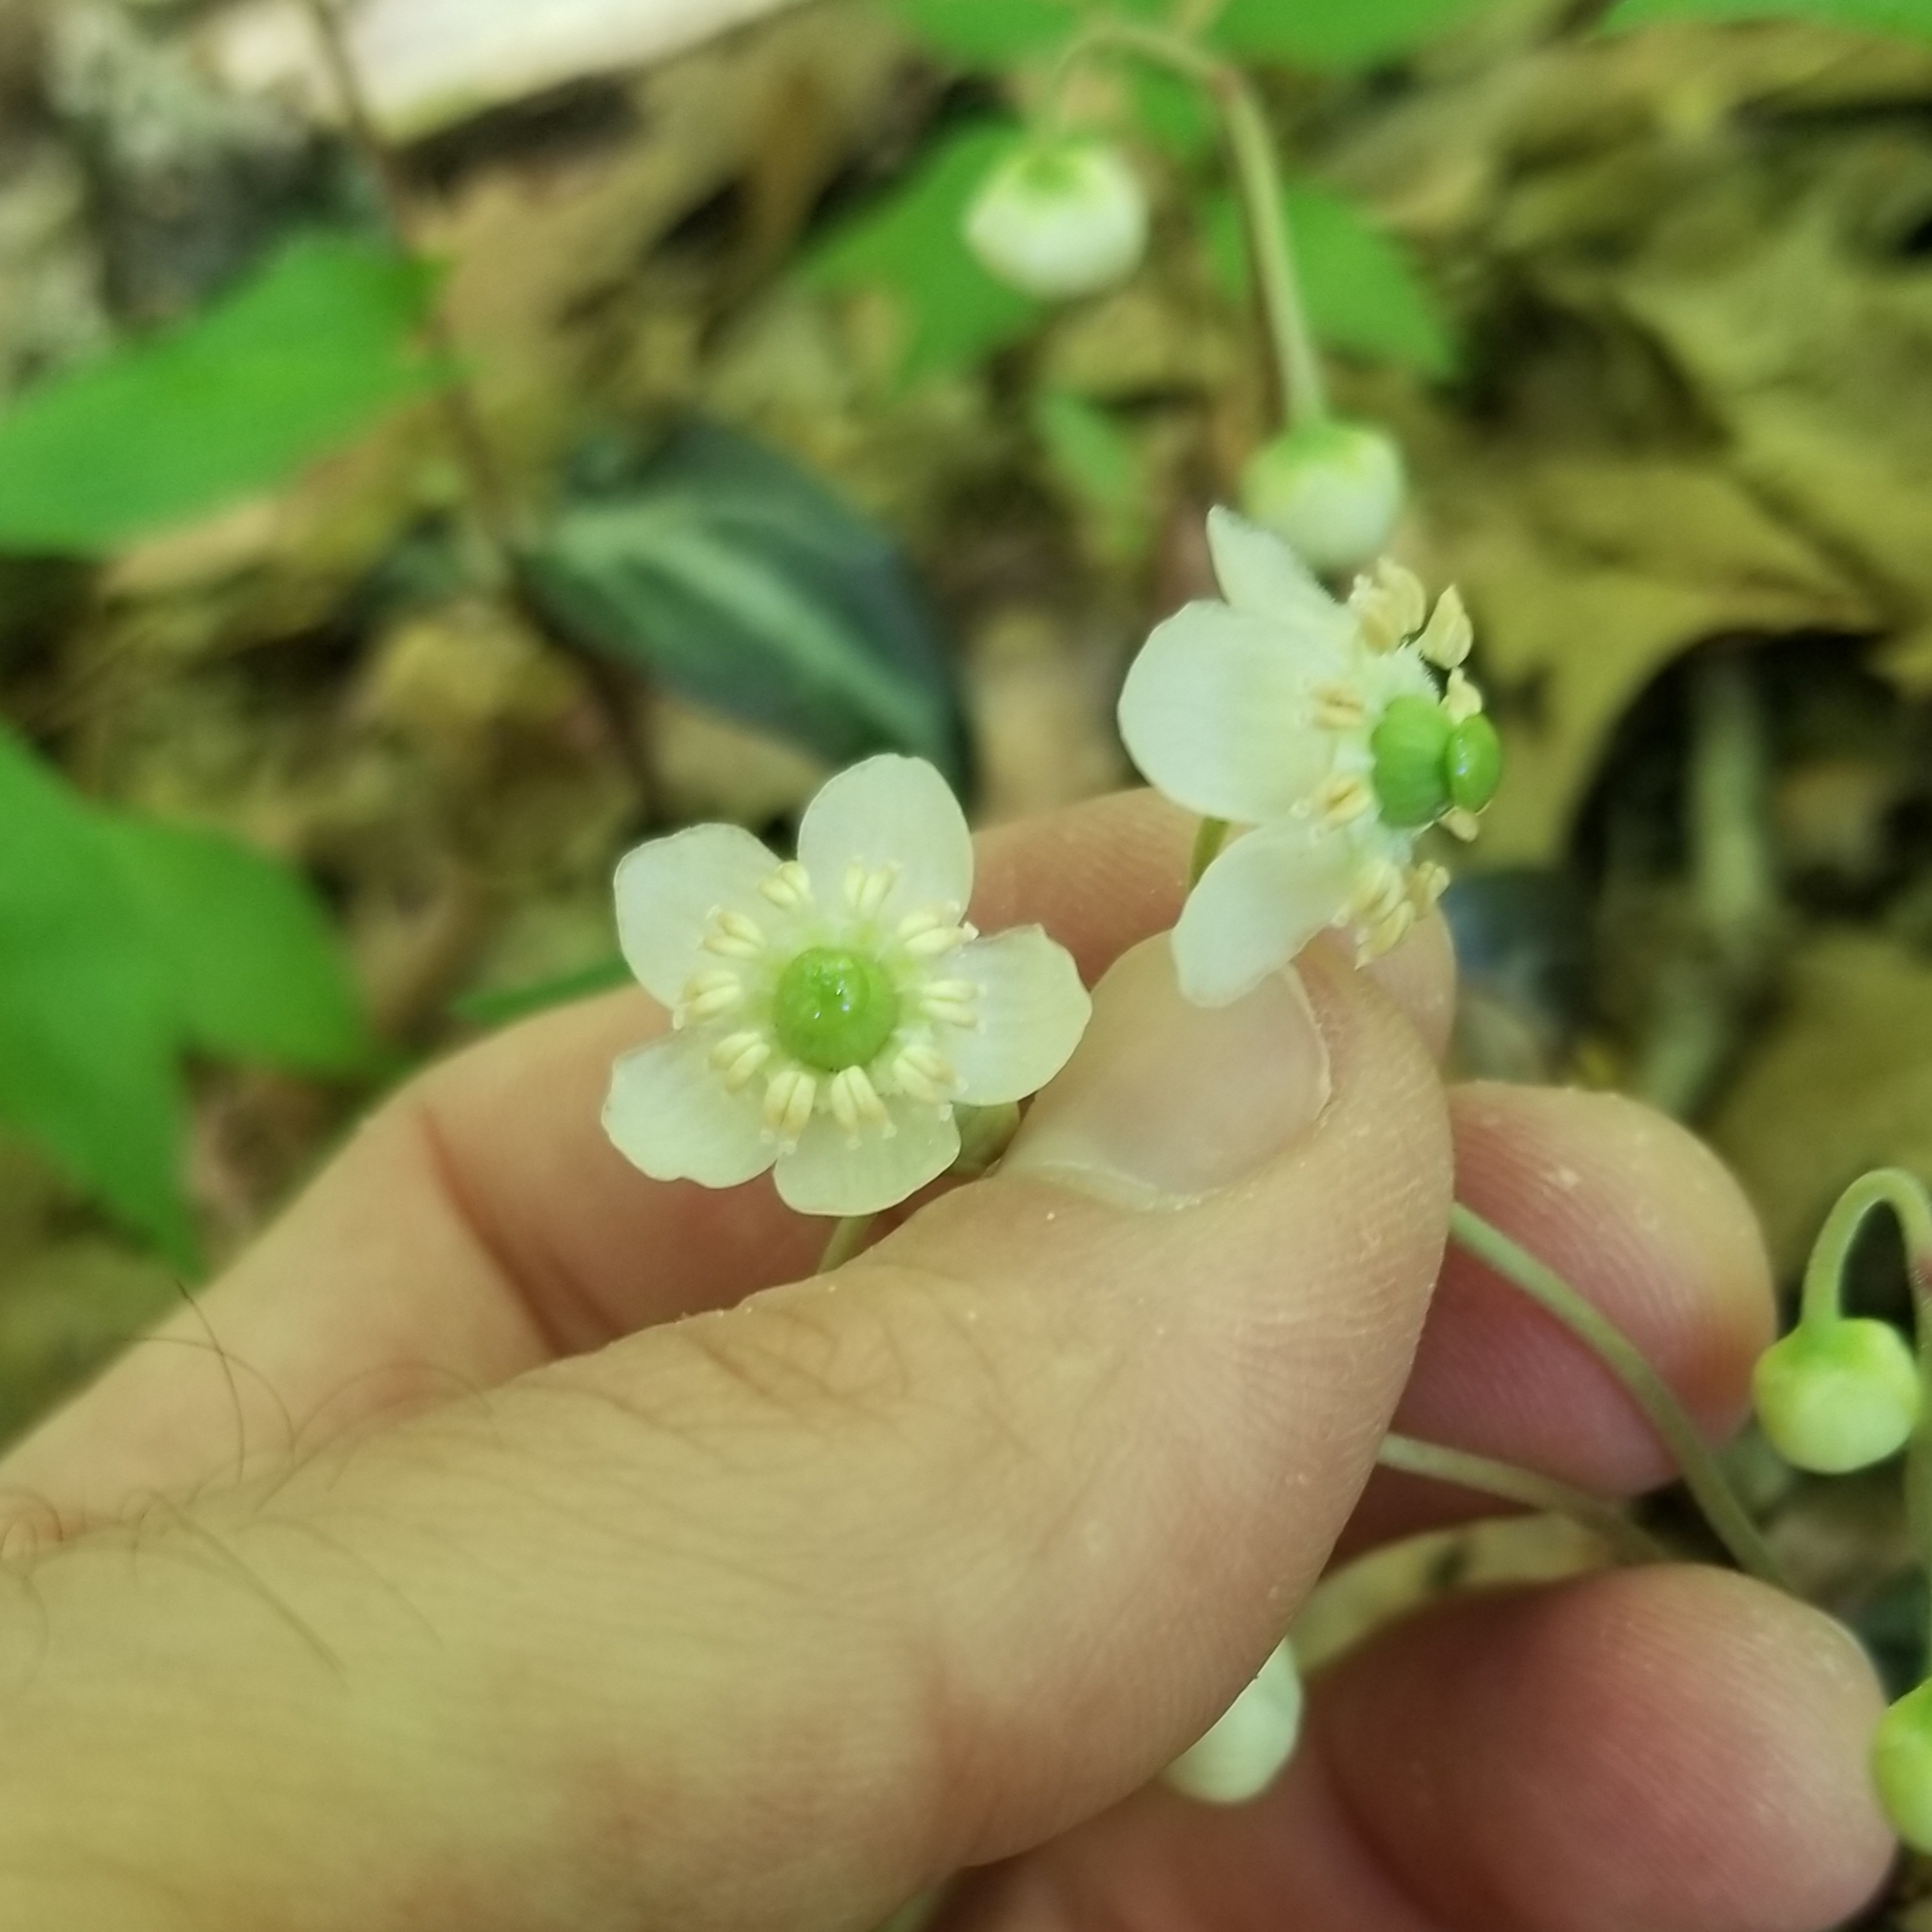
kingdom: Plantae
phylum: Tracheophyta
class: Magnoliopsida
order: Ericales
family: Ericaceae
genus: Chimaphila
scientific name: Chimaphila maculata
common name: Spotted pipsissewa
